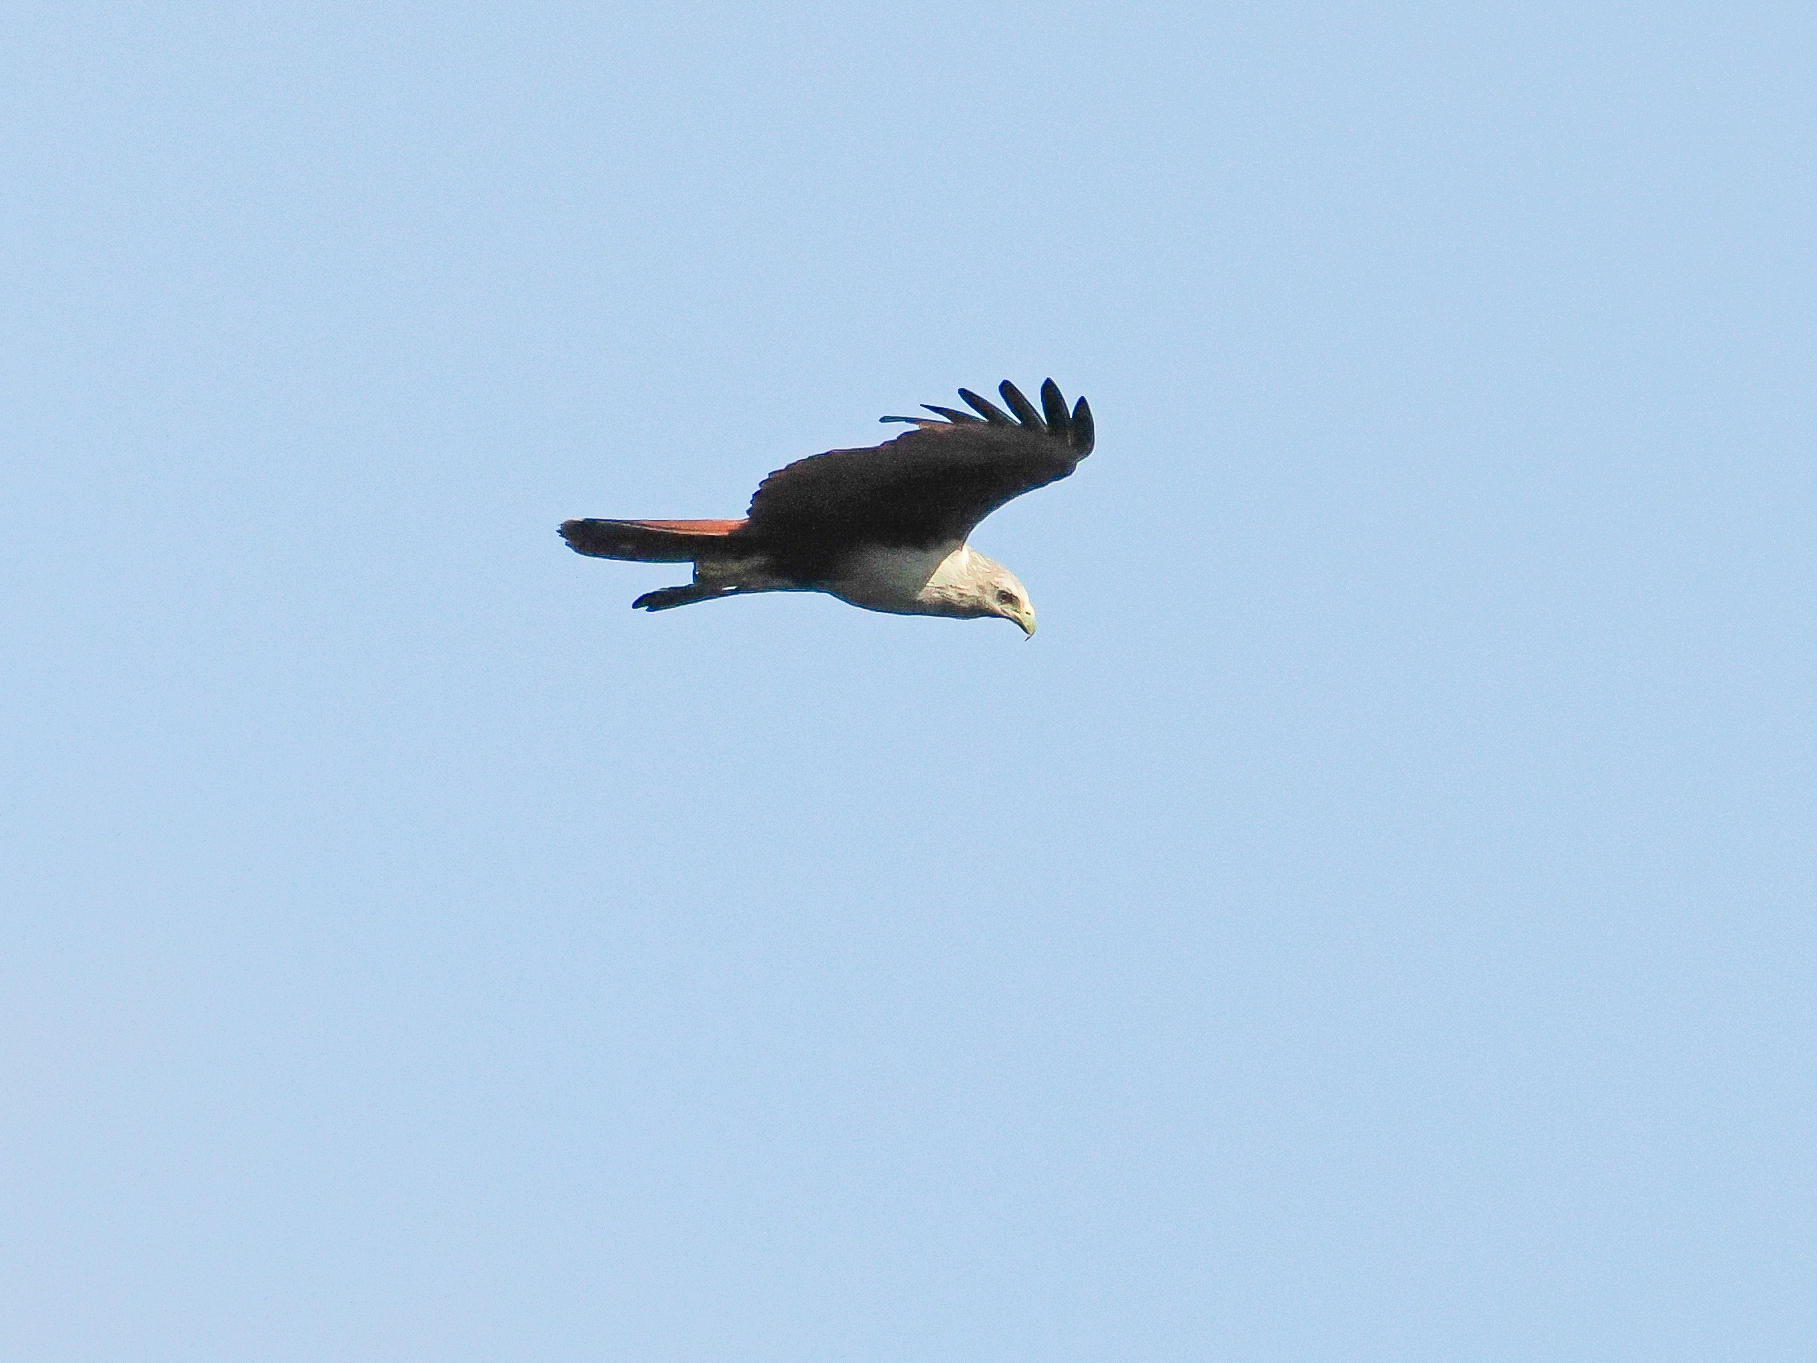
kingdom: Animalia
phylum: Chordata
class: Aves
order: Accipitriformes
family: Accipitridae
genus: Haliastur
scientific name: Haliastur indus
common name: Brahminy kite
